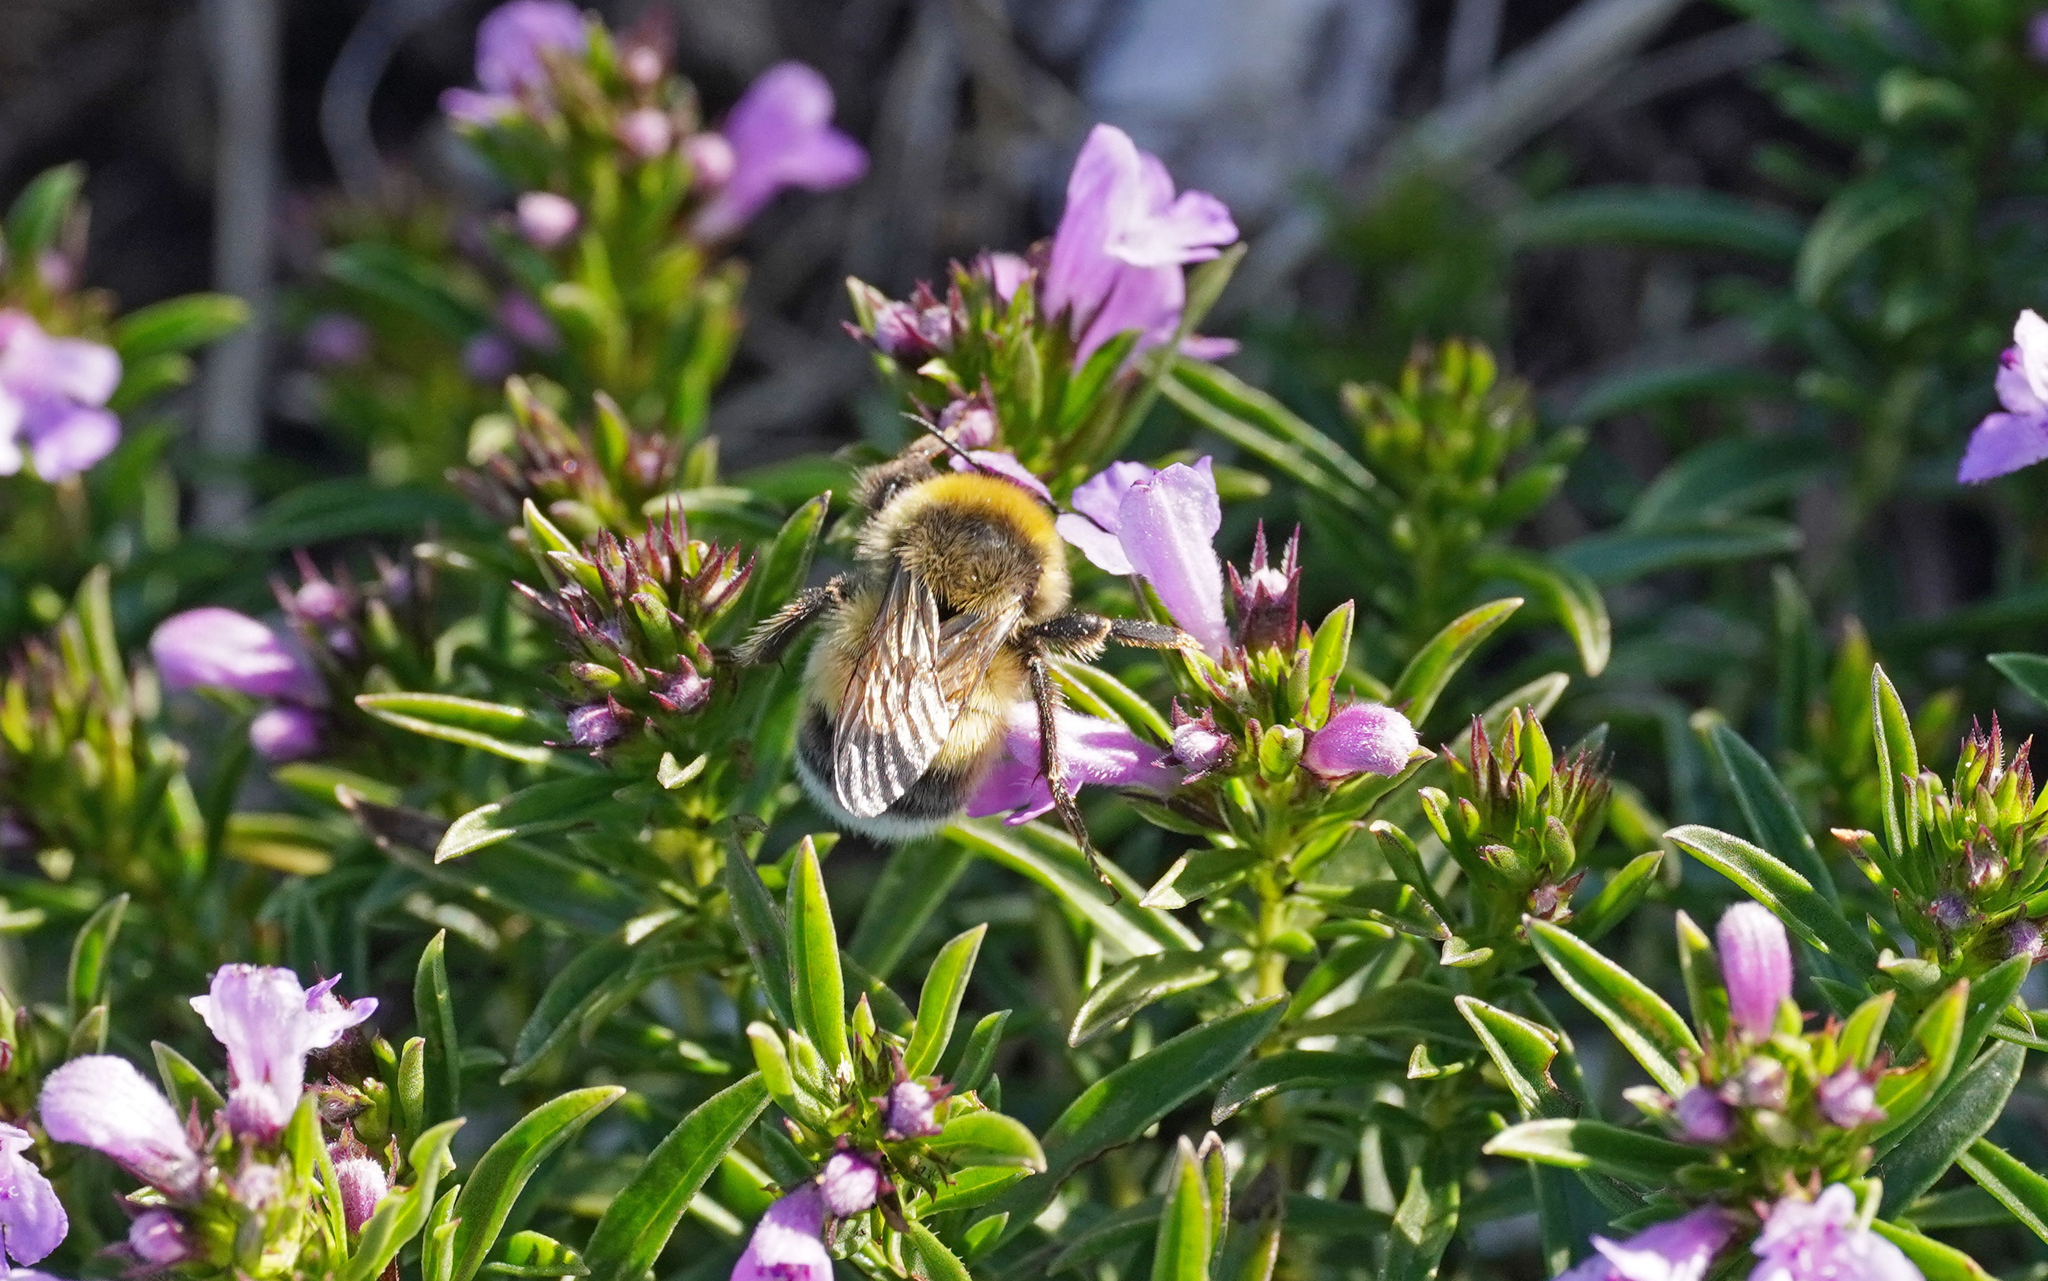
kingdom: Animalia
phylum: Arthropoda
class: Insecta
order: Hymenoptera
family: Apidae
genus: Bombus
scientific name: Bombus lucorum
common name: White-tailed bumblebee
